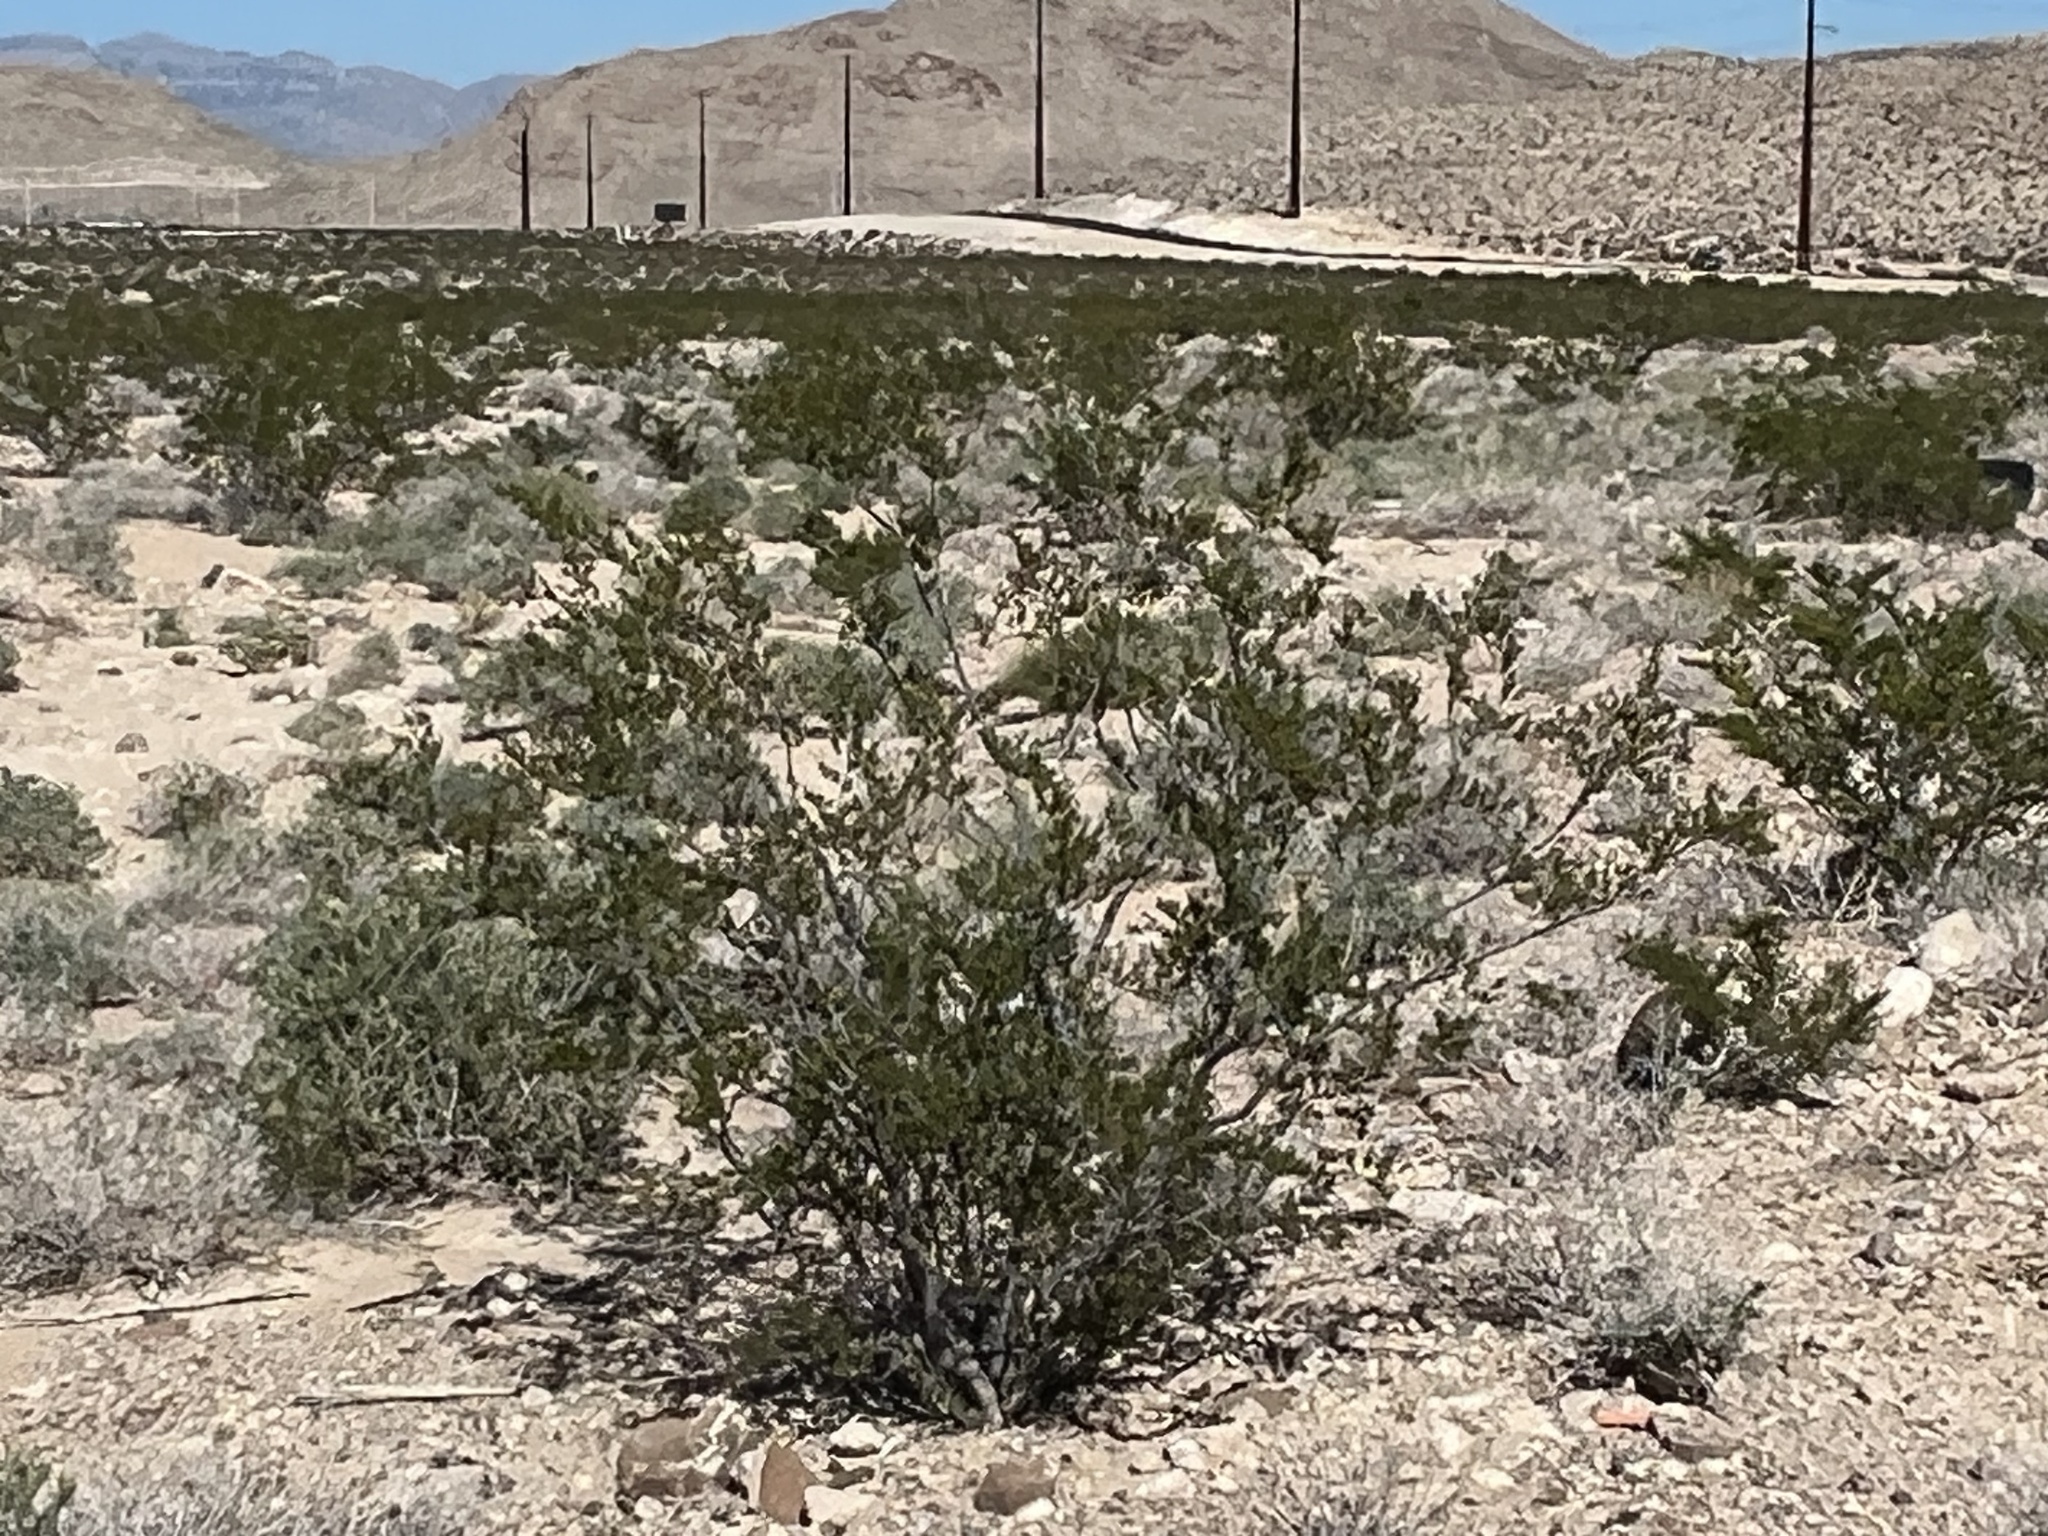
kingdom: Plantae
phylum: Tracheophyta
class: Magnoliopsida
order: Zygophyllales
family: Zygophyllaceae
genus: Larrea
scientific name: Larrea tridentata
